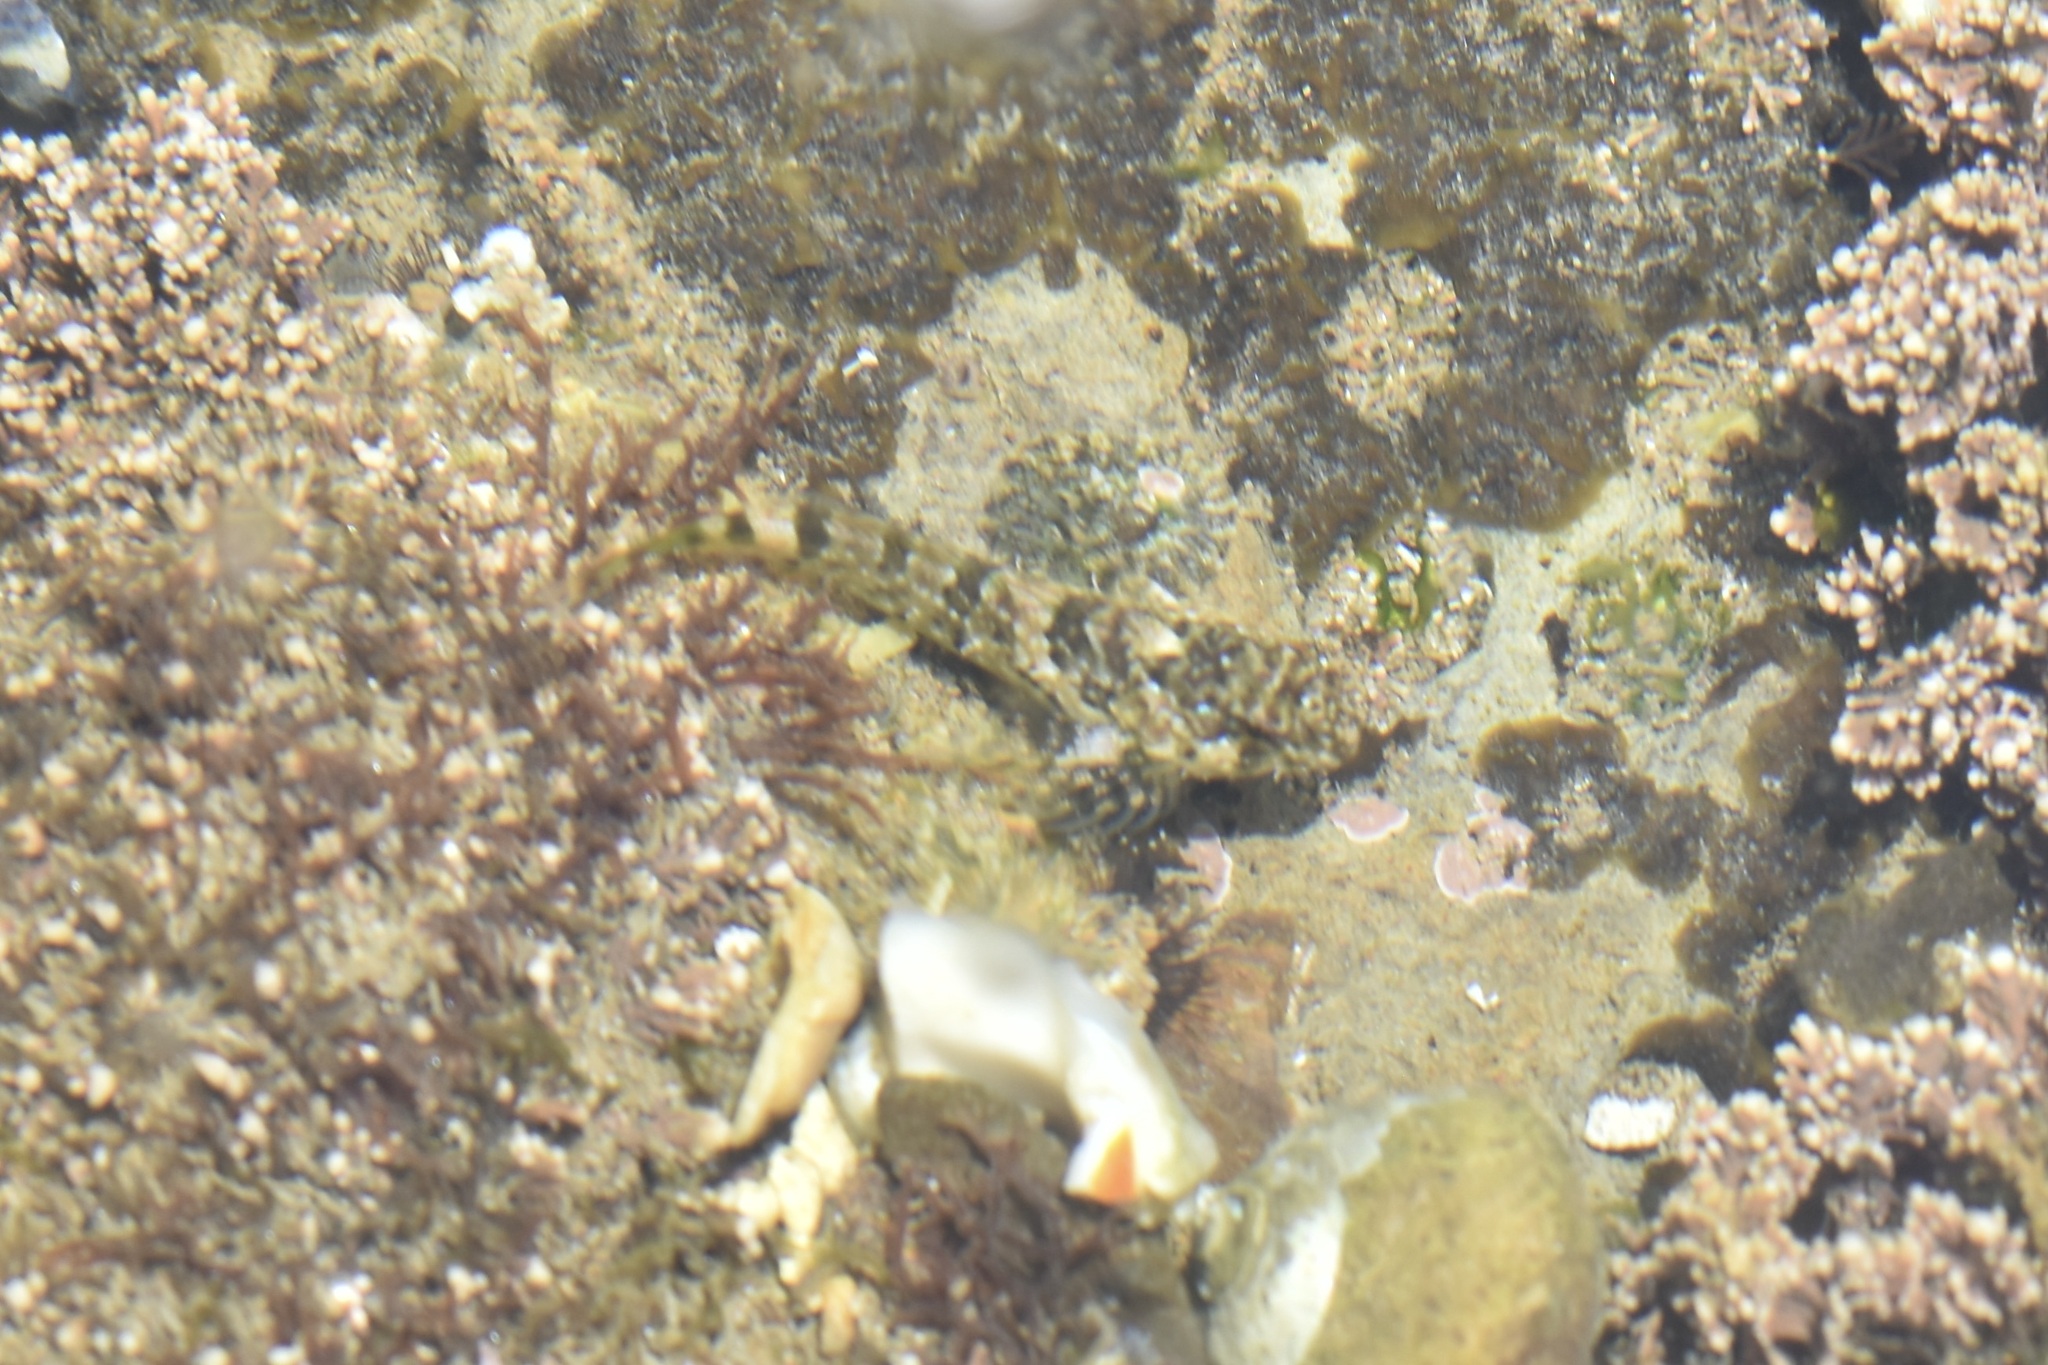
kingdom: Animalia
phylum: Chordata
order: Scorpaeniformes
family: Cottidae
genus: Clinocottus
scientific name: Clinocottus analis
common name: Woolly sculpin
